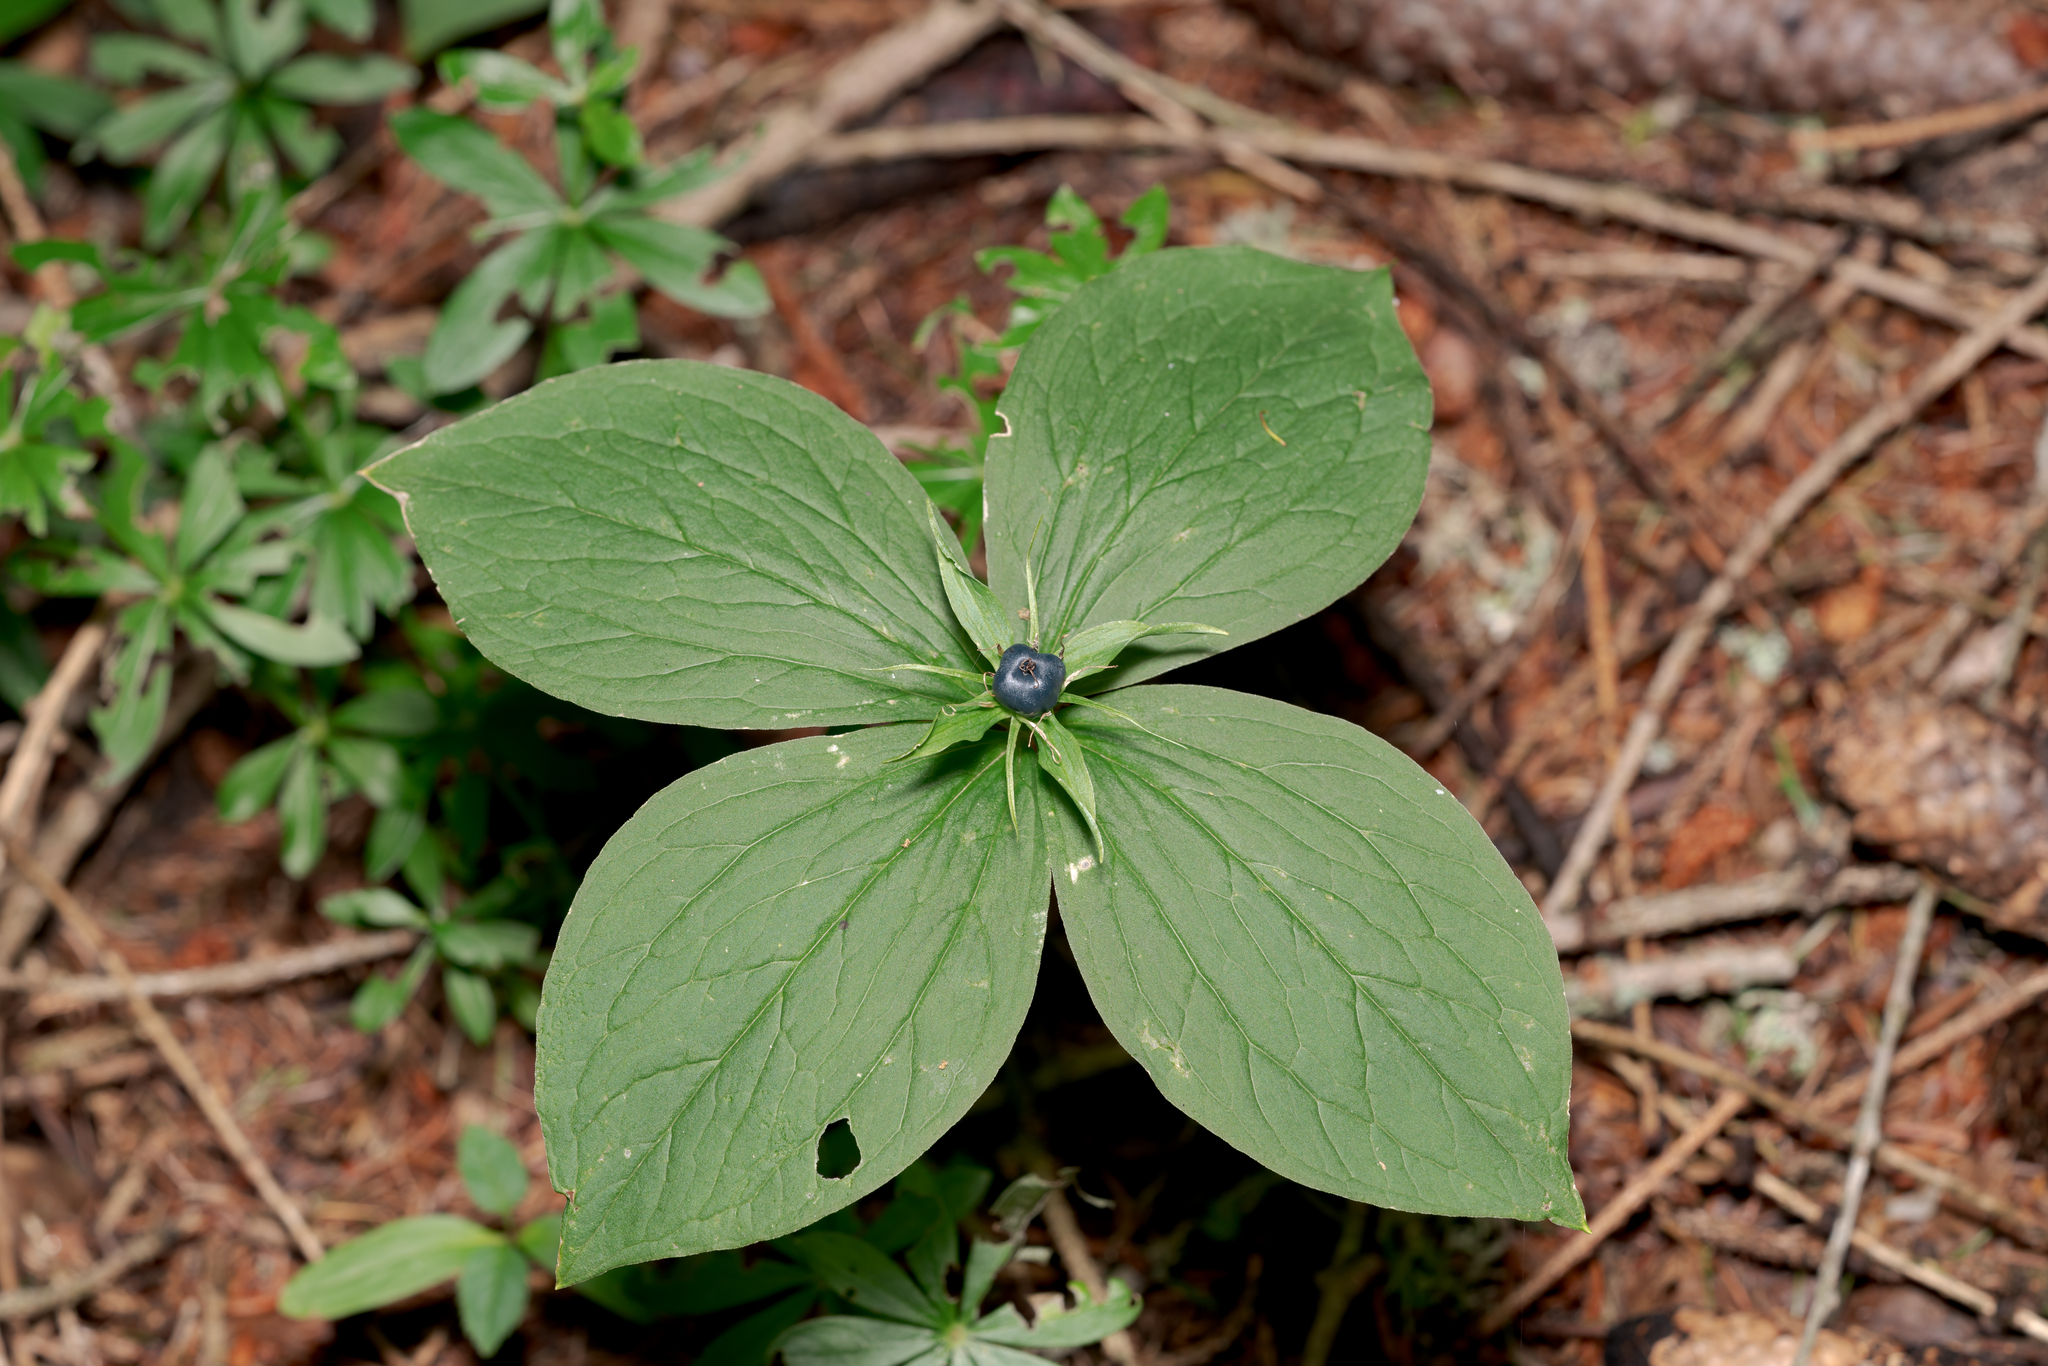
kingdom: Plantae
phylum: Tracheophyta
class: Liliopsida
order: Liliales
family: Melanthiaceae
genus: Paris
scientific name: Paris quadrifolia
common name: Herb-paris
